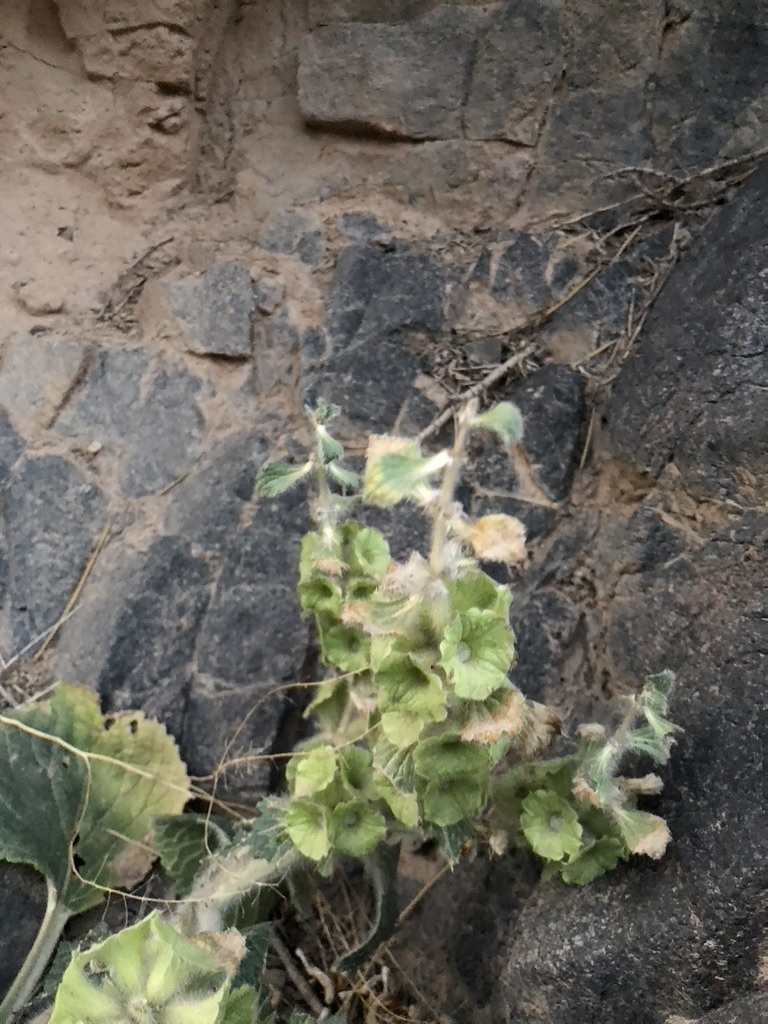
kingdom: Plantae
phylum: Tracheophyta
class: Magnoliopsida
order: Lamiales
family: Lamiaceae
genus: Phlomoides
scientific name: Phlomoides isochila
